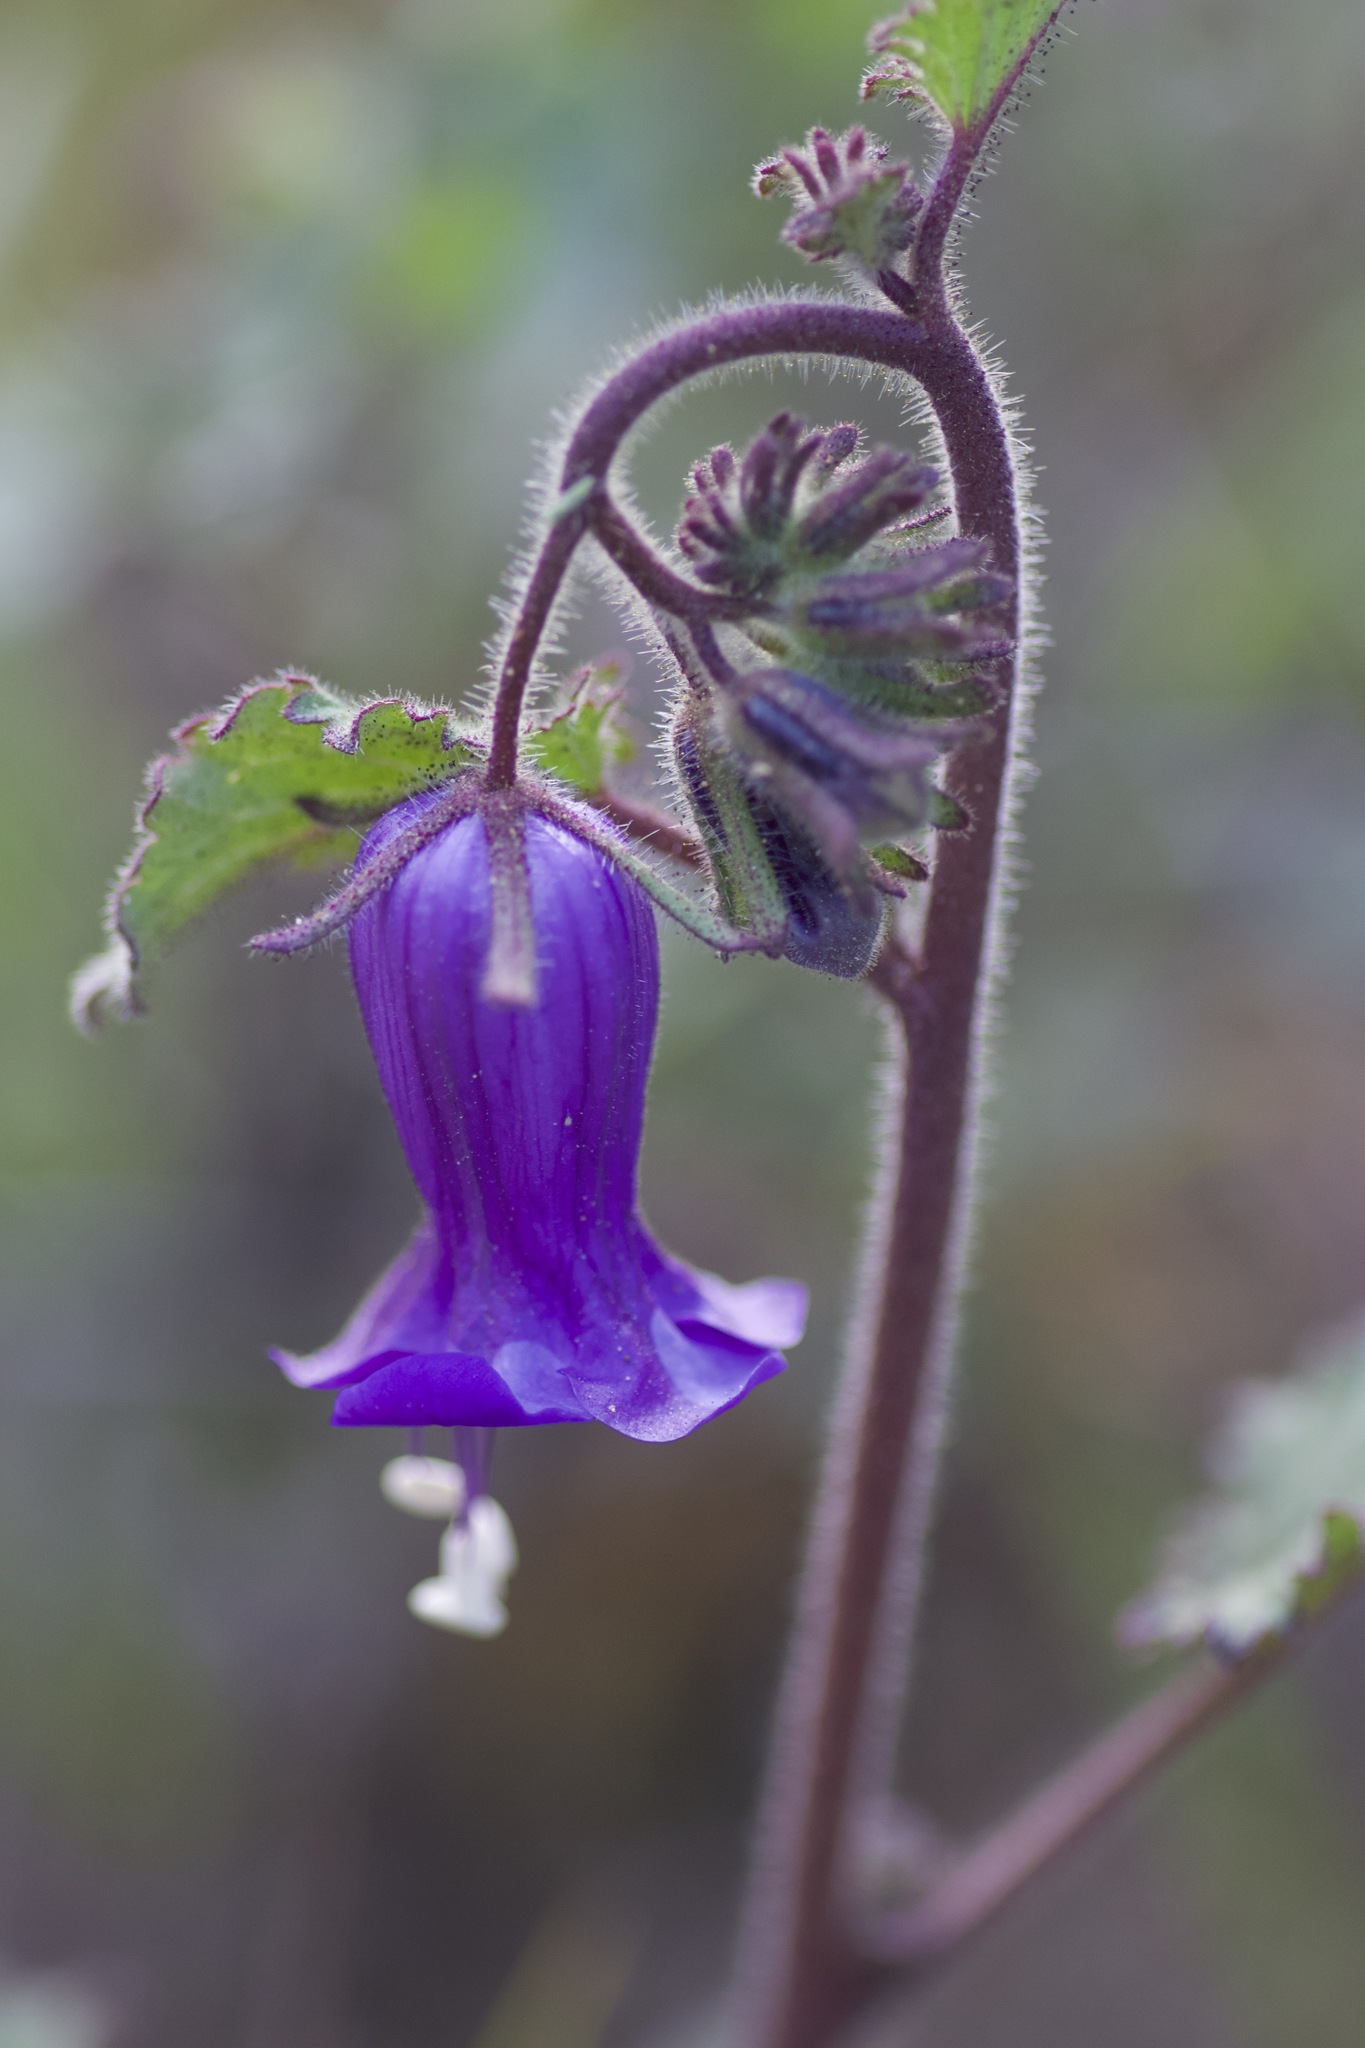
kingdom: Plantae
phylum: Tracheophyta
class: Magnoliopsida
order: Boraginales
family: Hydrophyllaceae
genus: Phacelia
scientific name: Phacelia minor
